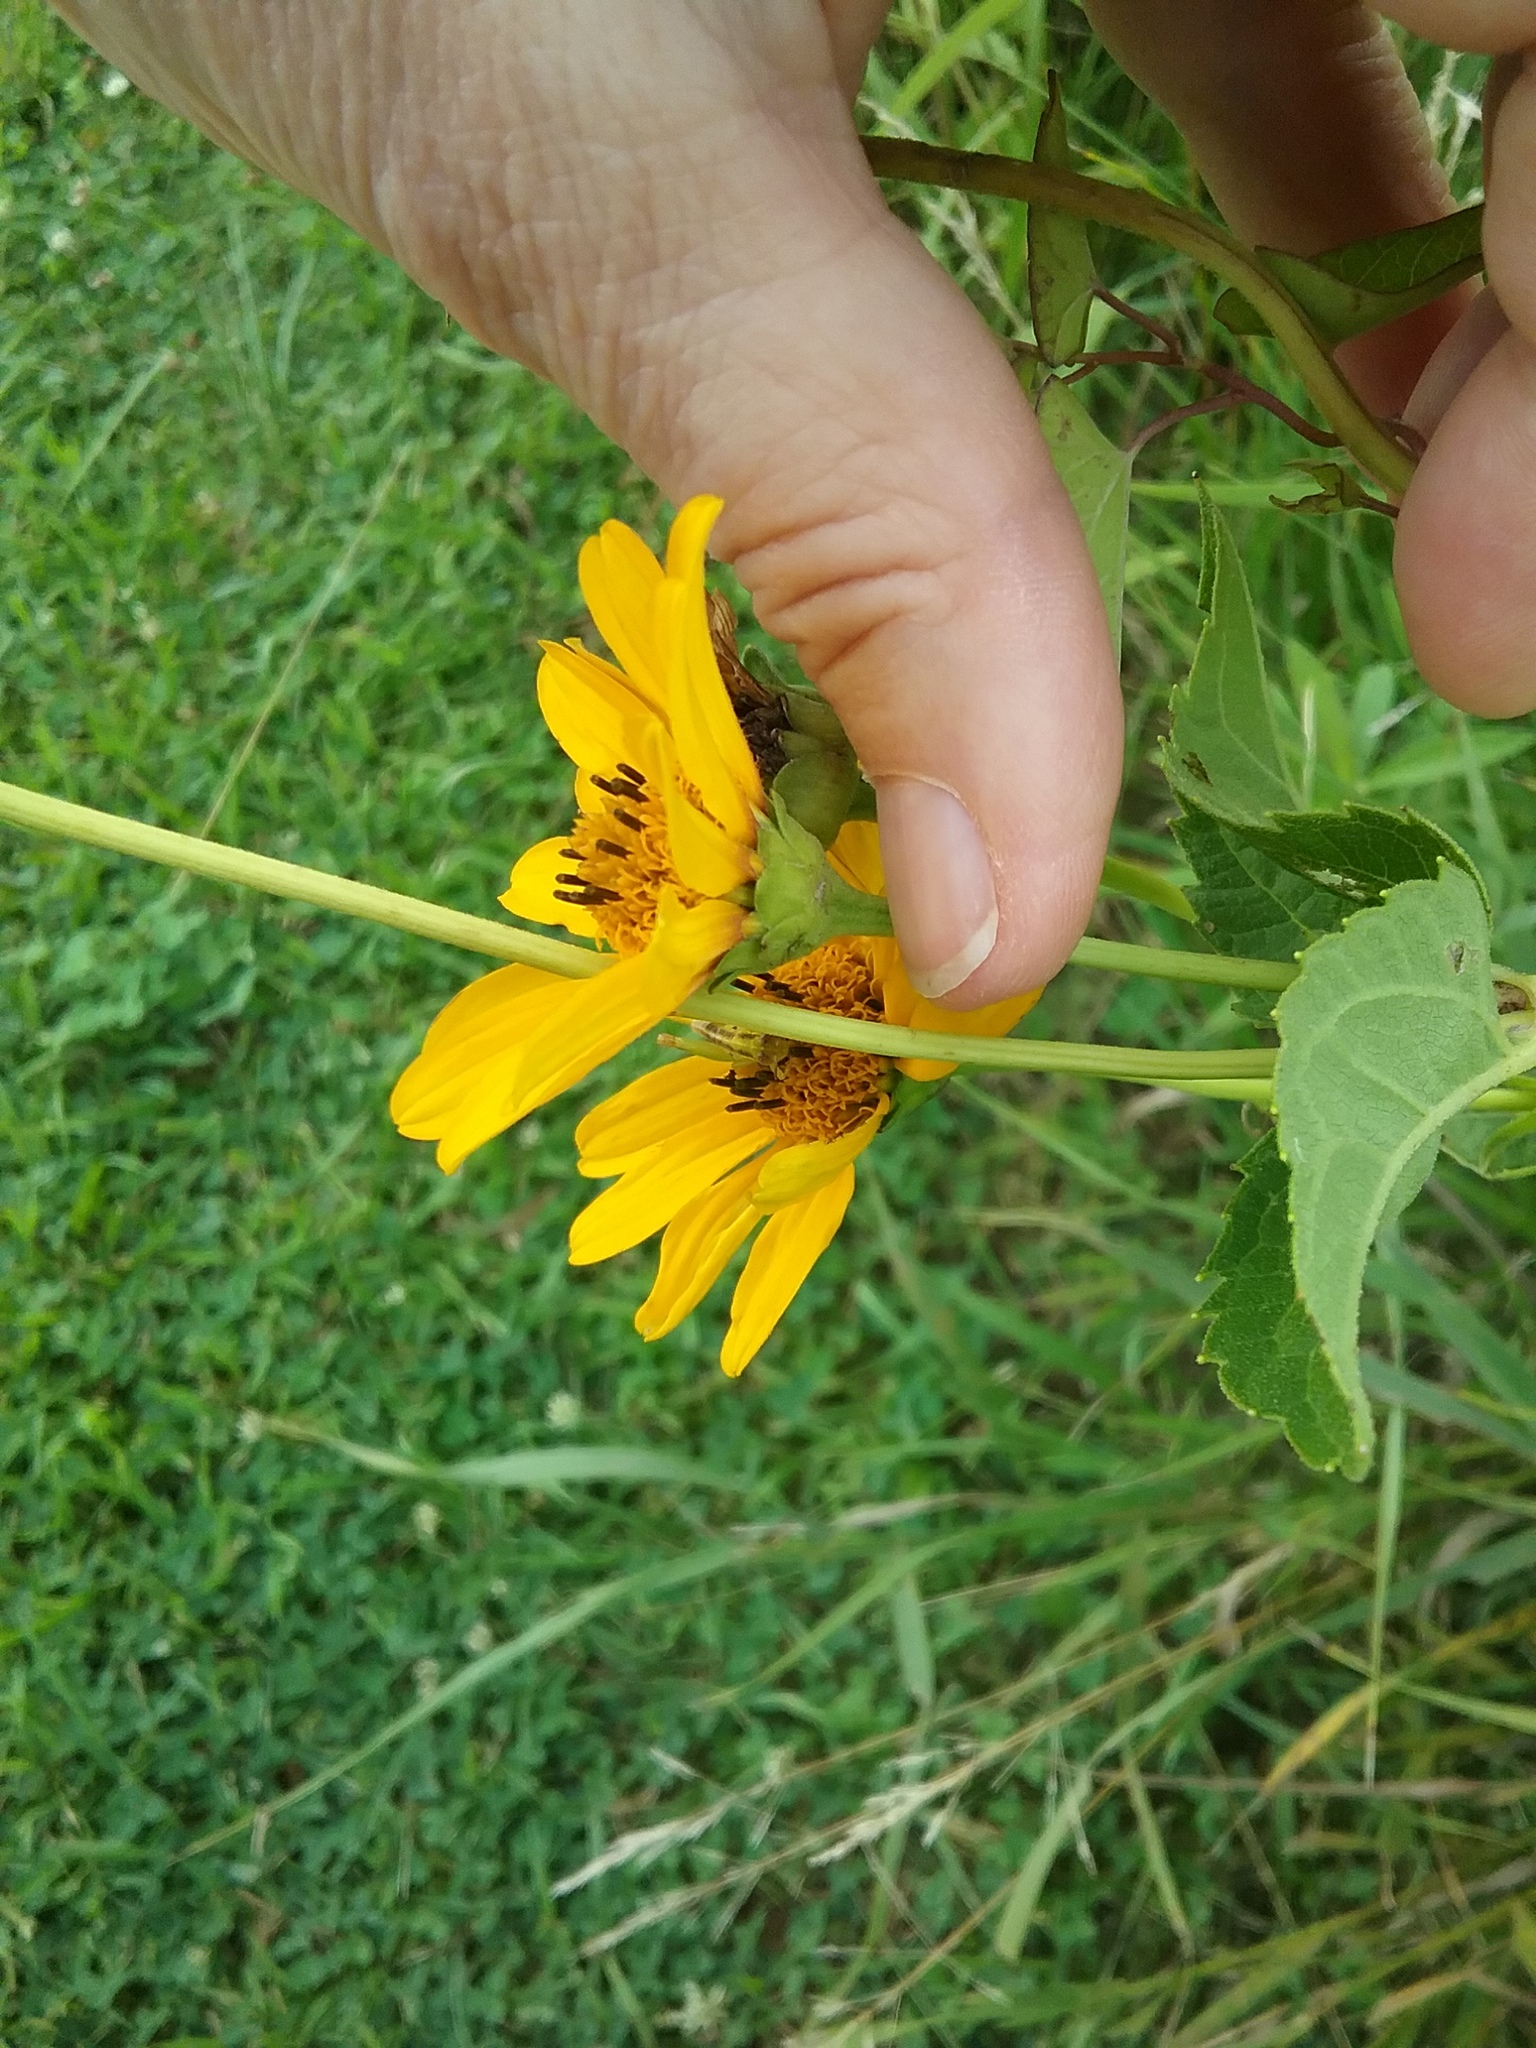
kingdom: Plantae
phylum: Tracheophyta
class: Magnoliopsida
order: Asterales
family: Asteraceae
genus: Heliopsis
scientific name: Heliopsis helianthoides
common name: False sunflower
